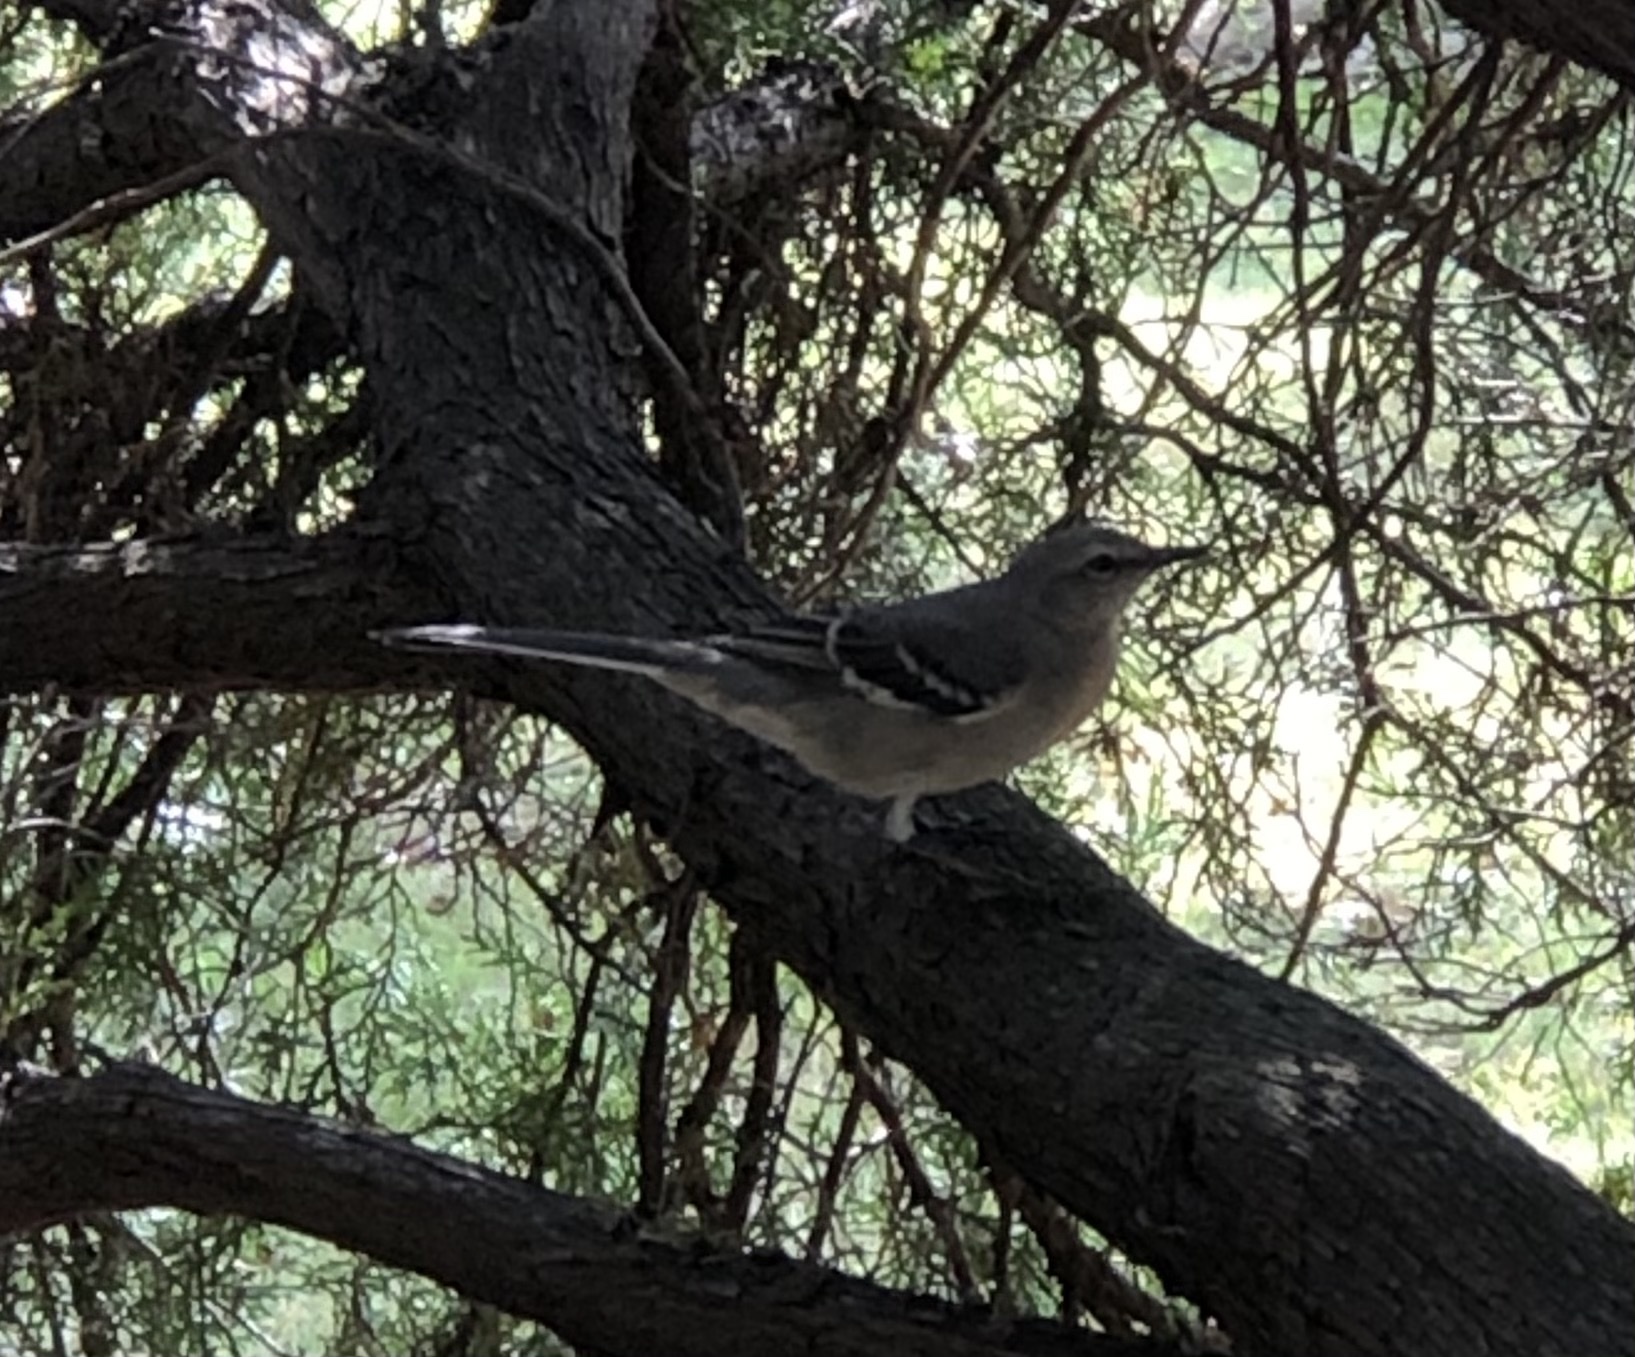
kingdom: Animalia
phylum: Chordata
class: Aves
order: Passeriformes
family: Mimidae
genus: Mimus
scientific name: Mimus polyglottos
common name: Northern mockingbird
